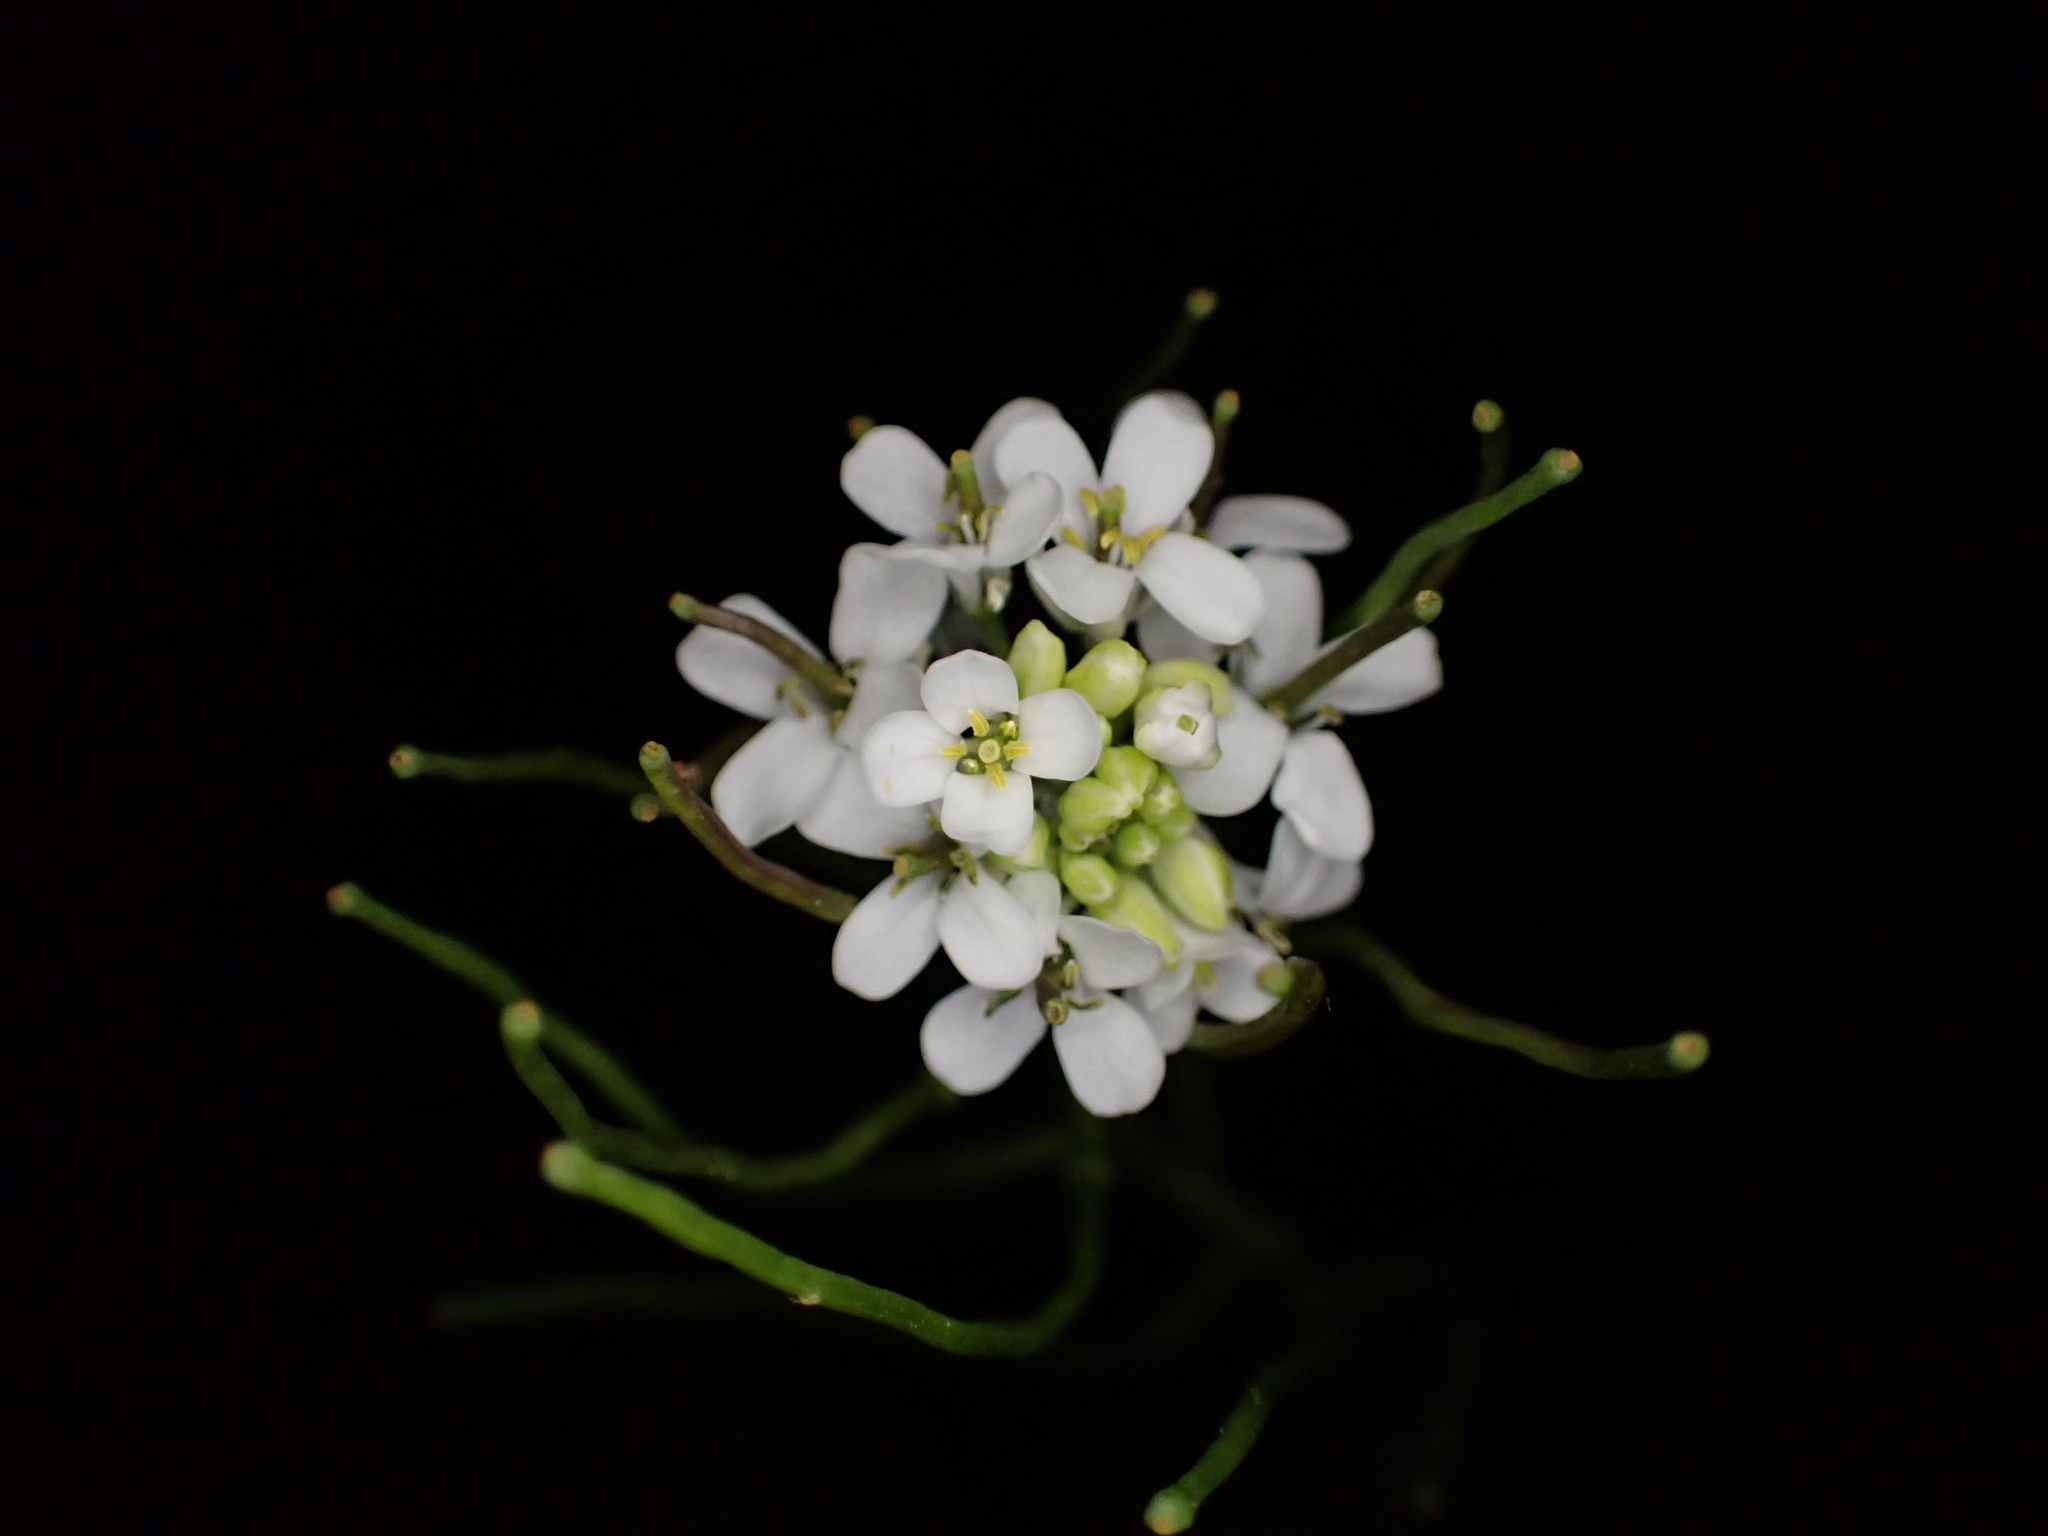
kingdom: Plantae
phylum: Tracheophyta
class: Magnoliopsida
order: Brassicales
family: Brassicaceae
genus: Alliaria
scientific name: Alliaria petiolata
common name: Garlic mustard
